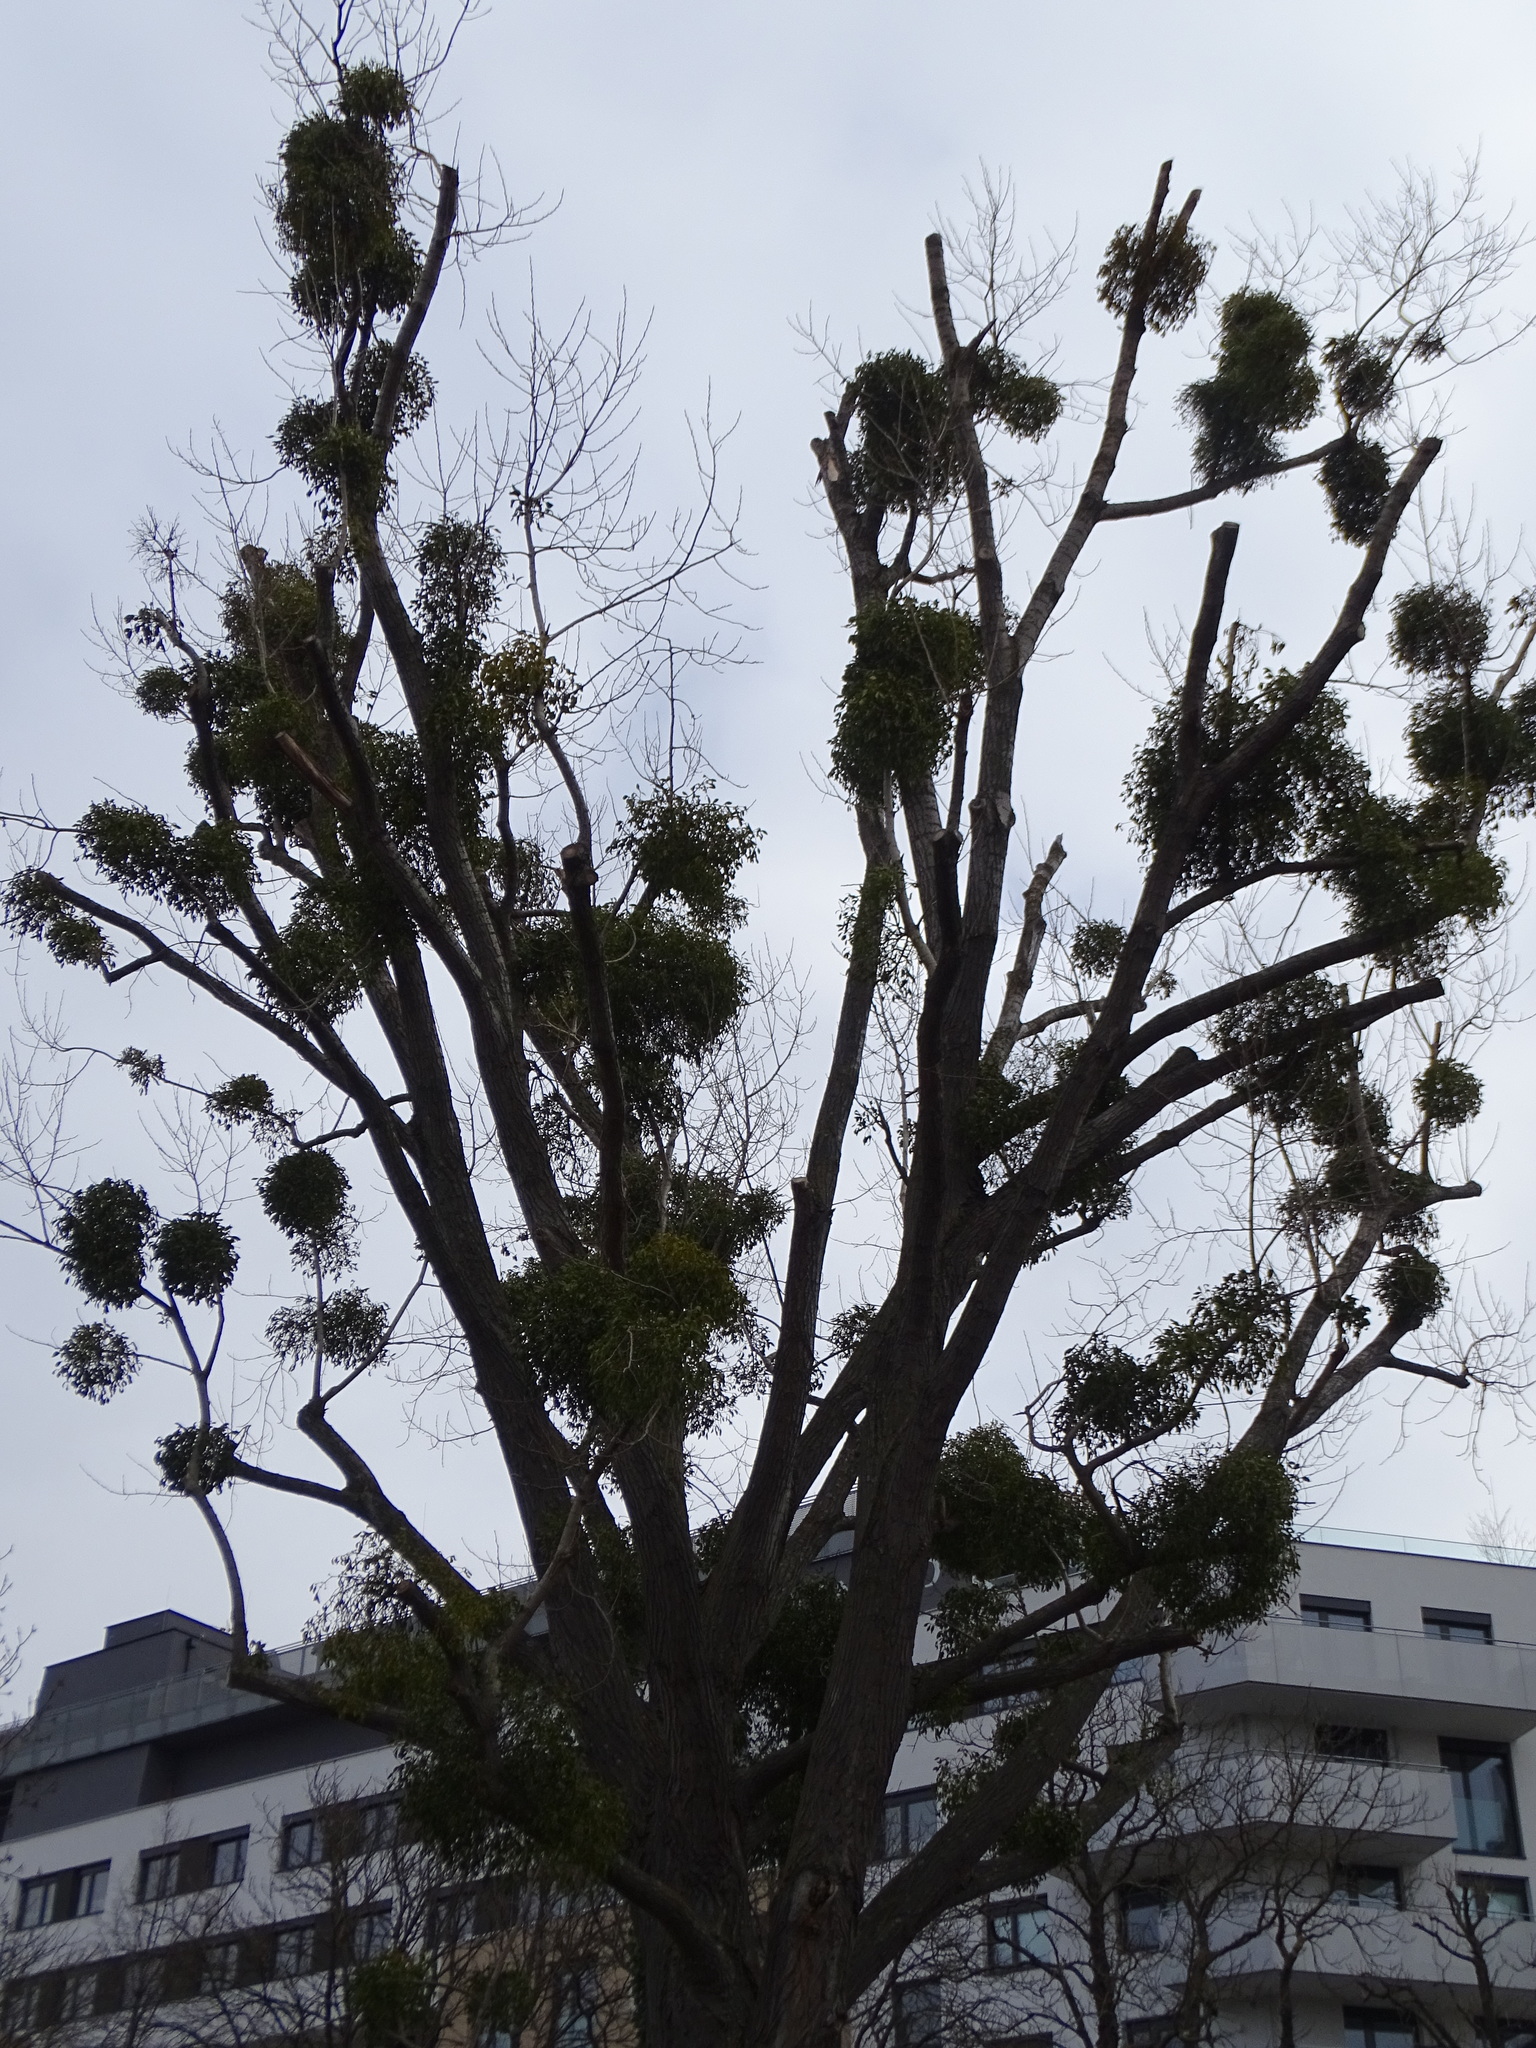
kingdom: Plantae
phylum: Tracheophyta
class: Magnoliopsida
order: Santalales
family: Viscaceae
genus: Viscum
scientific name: Viscum album
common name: Mistletoe
